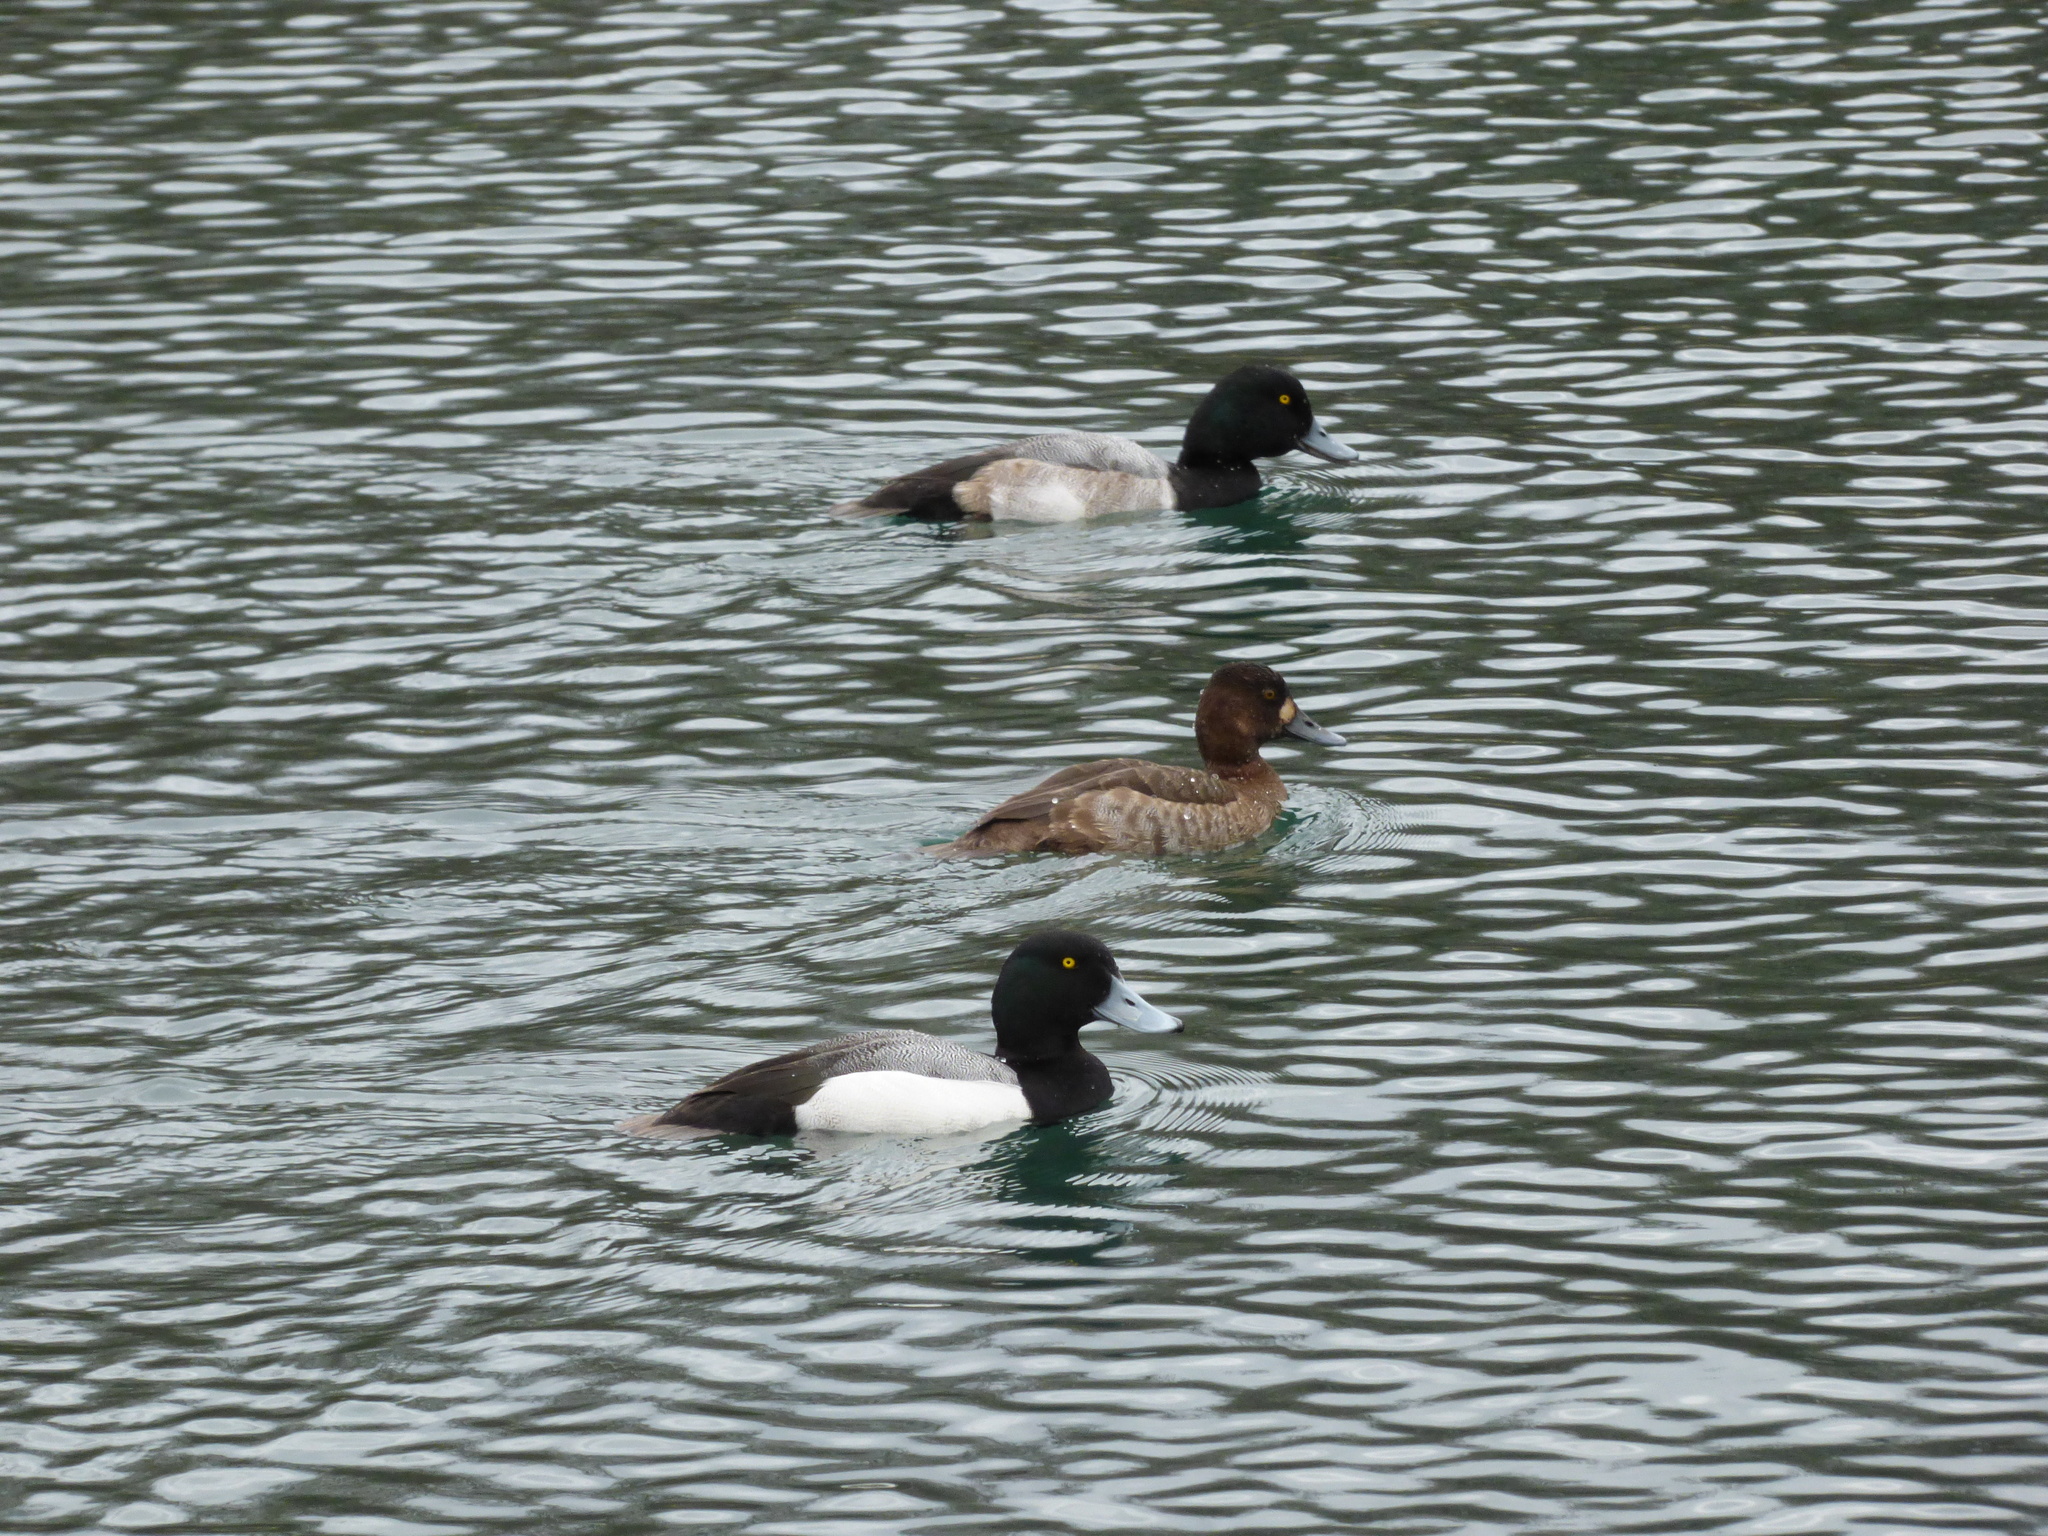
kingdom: Animalia
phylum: Chordata
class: Aves
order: Anseriformes
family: Anatidae
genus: Aythya
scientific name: Aythya affinis
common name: Lesser scaup
